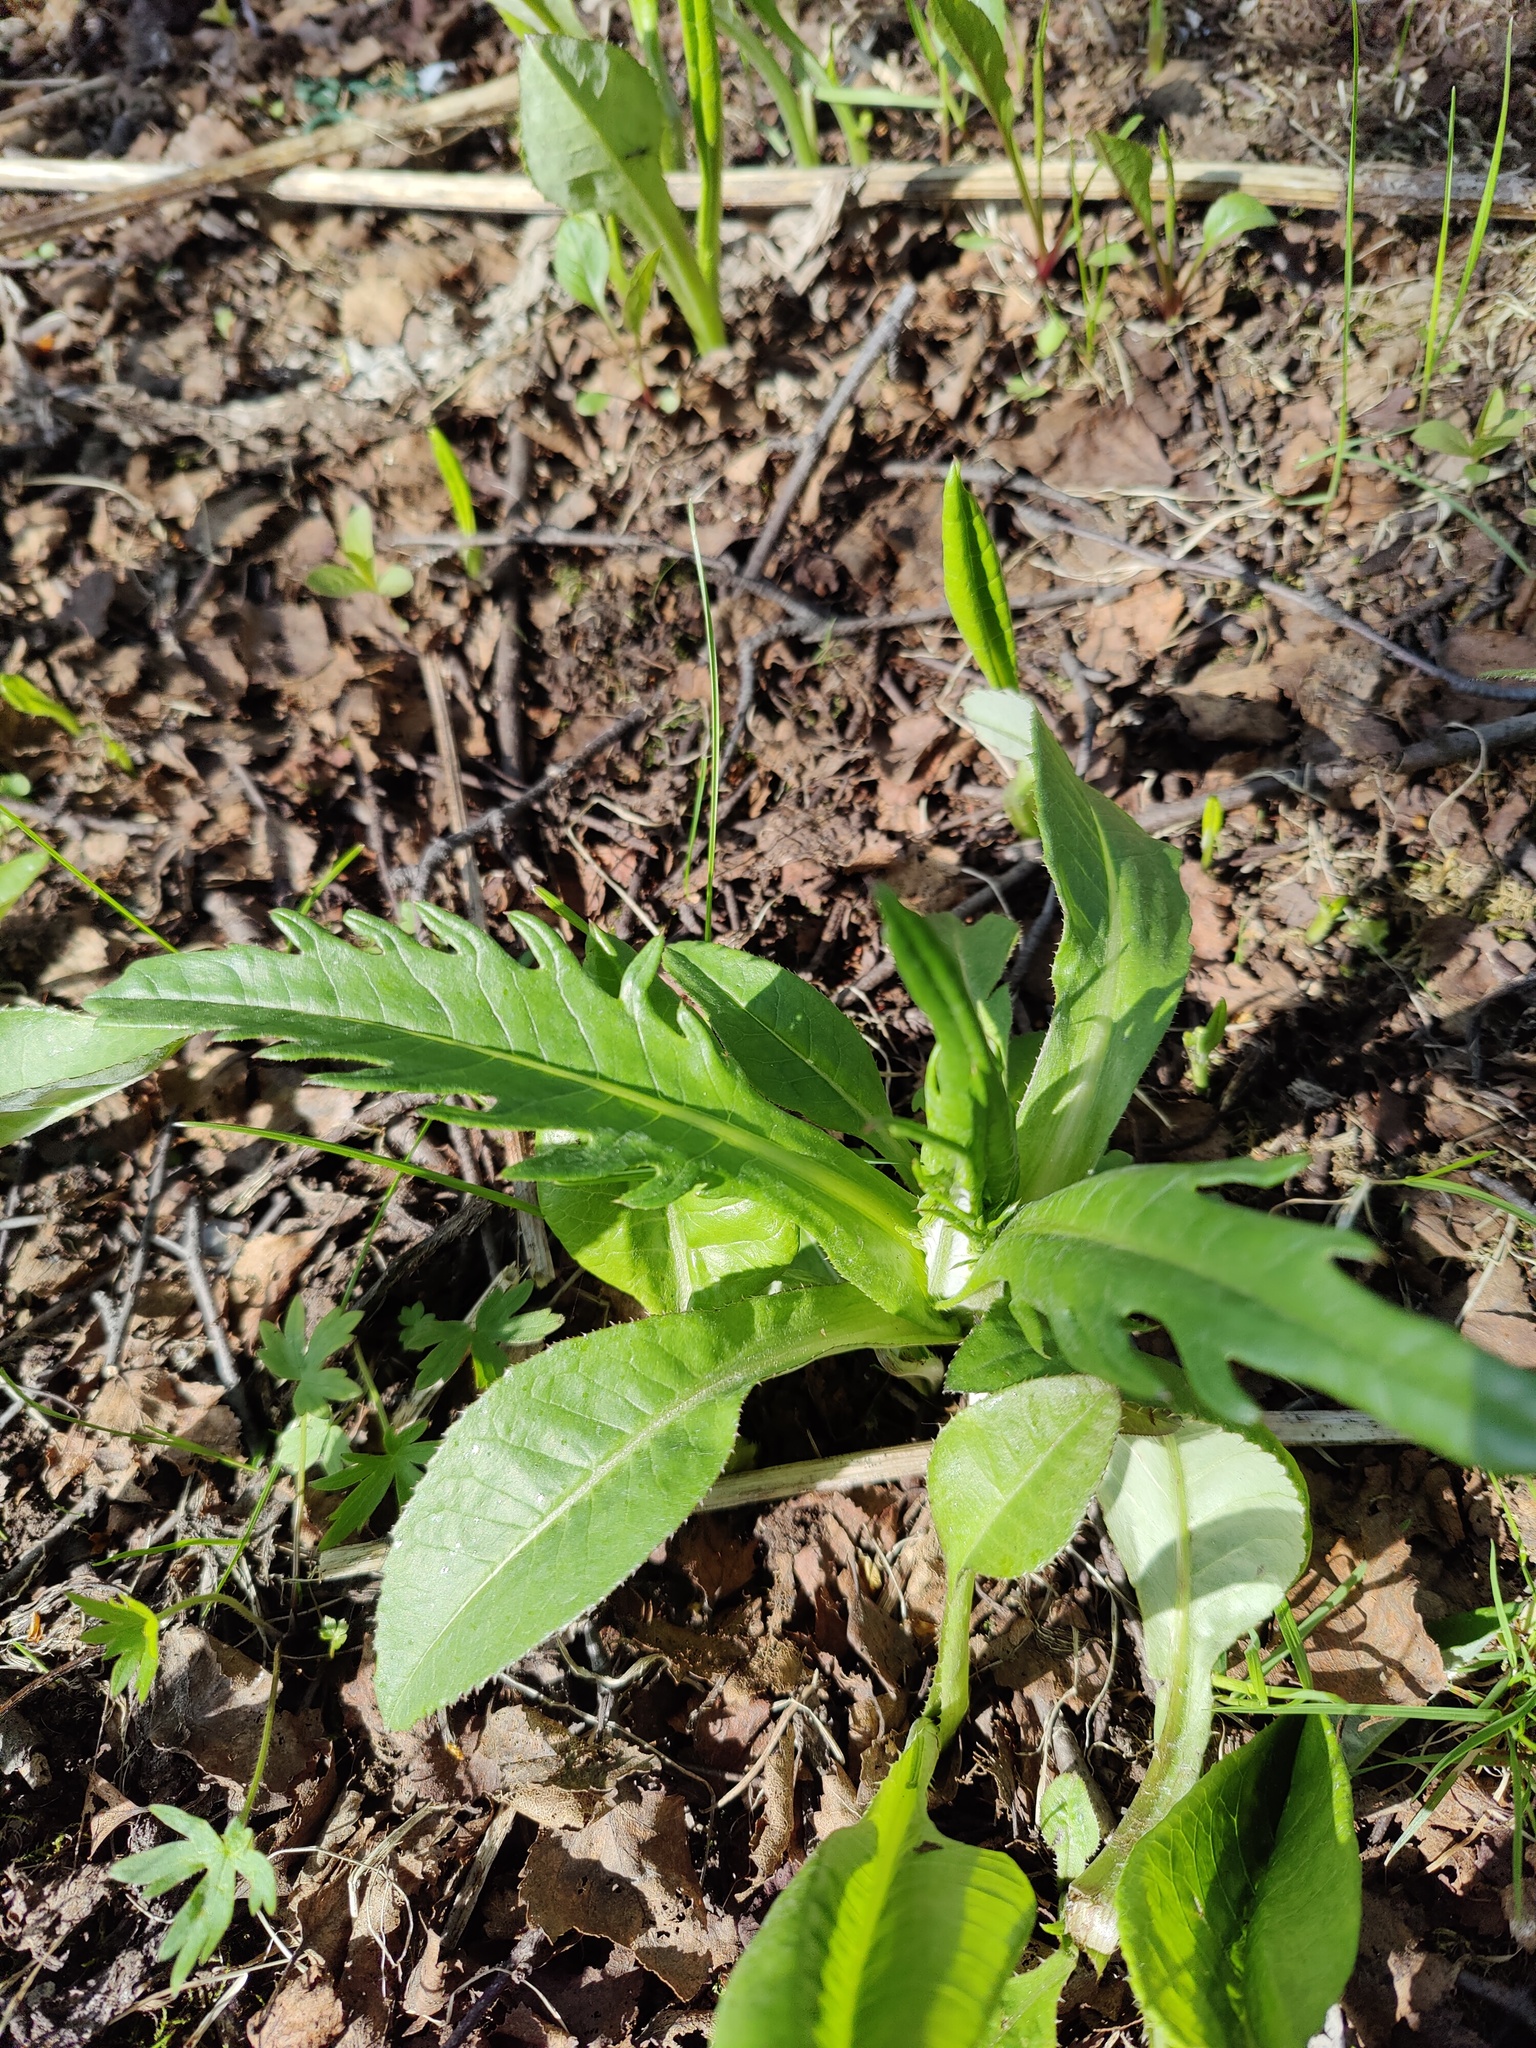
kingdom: Plantae
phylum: Tracheophyta
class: Magnoliopsida
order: Asterales
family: Asteraceae
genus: Cirsium
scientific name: Cirsium heterophyllum
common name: Melancholy thistle
